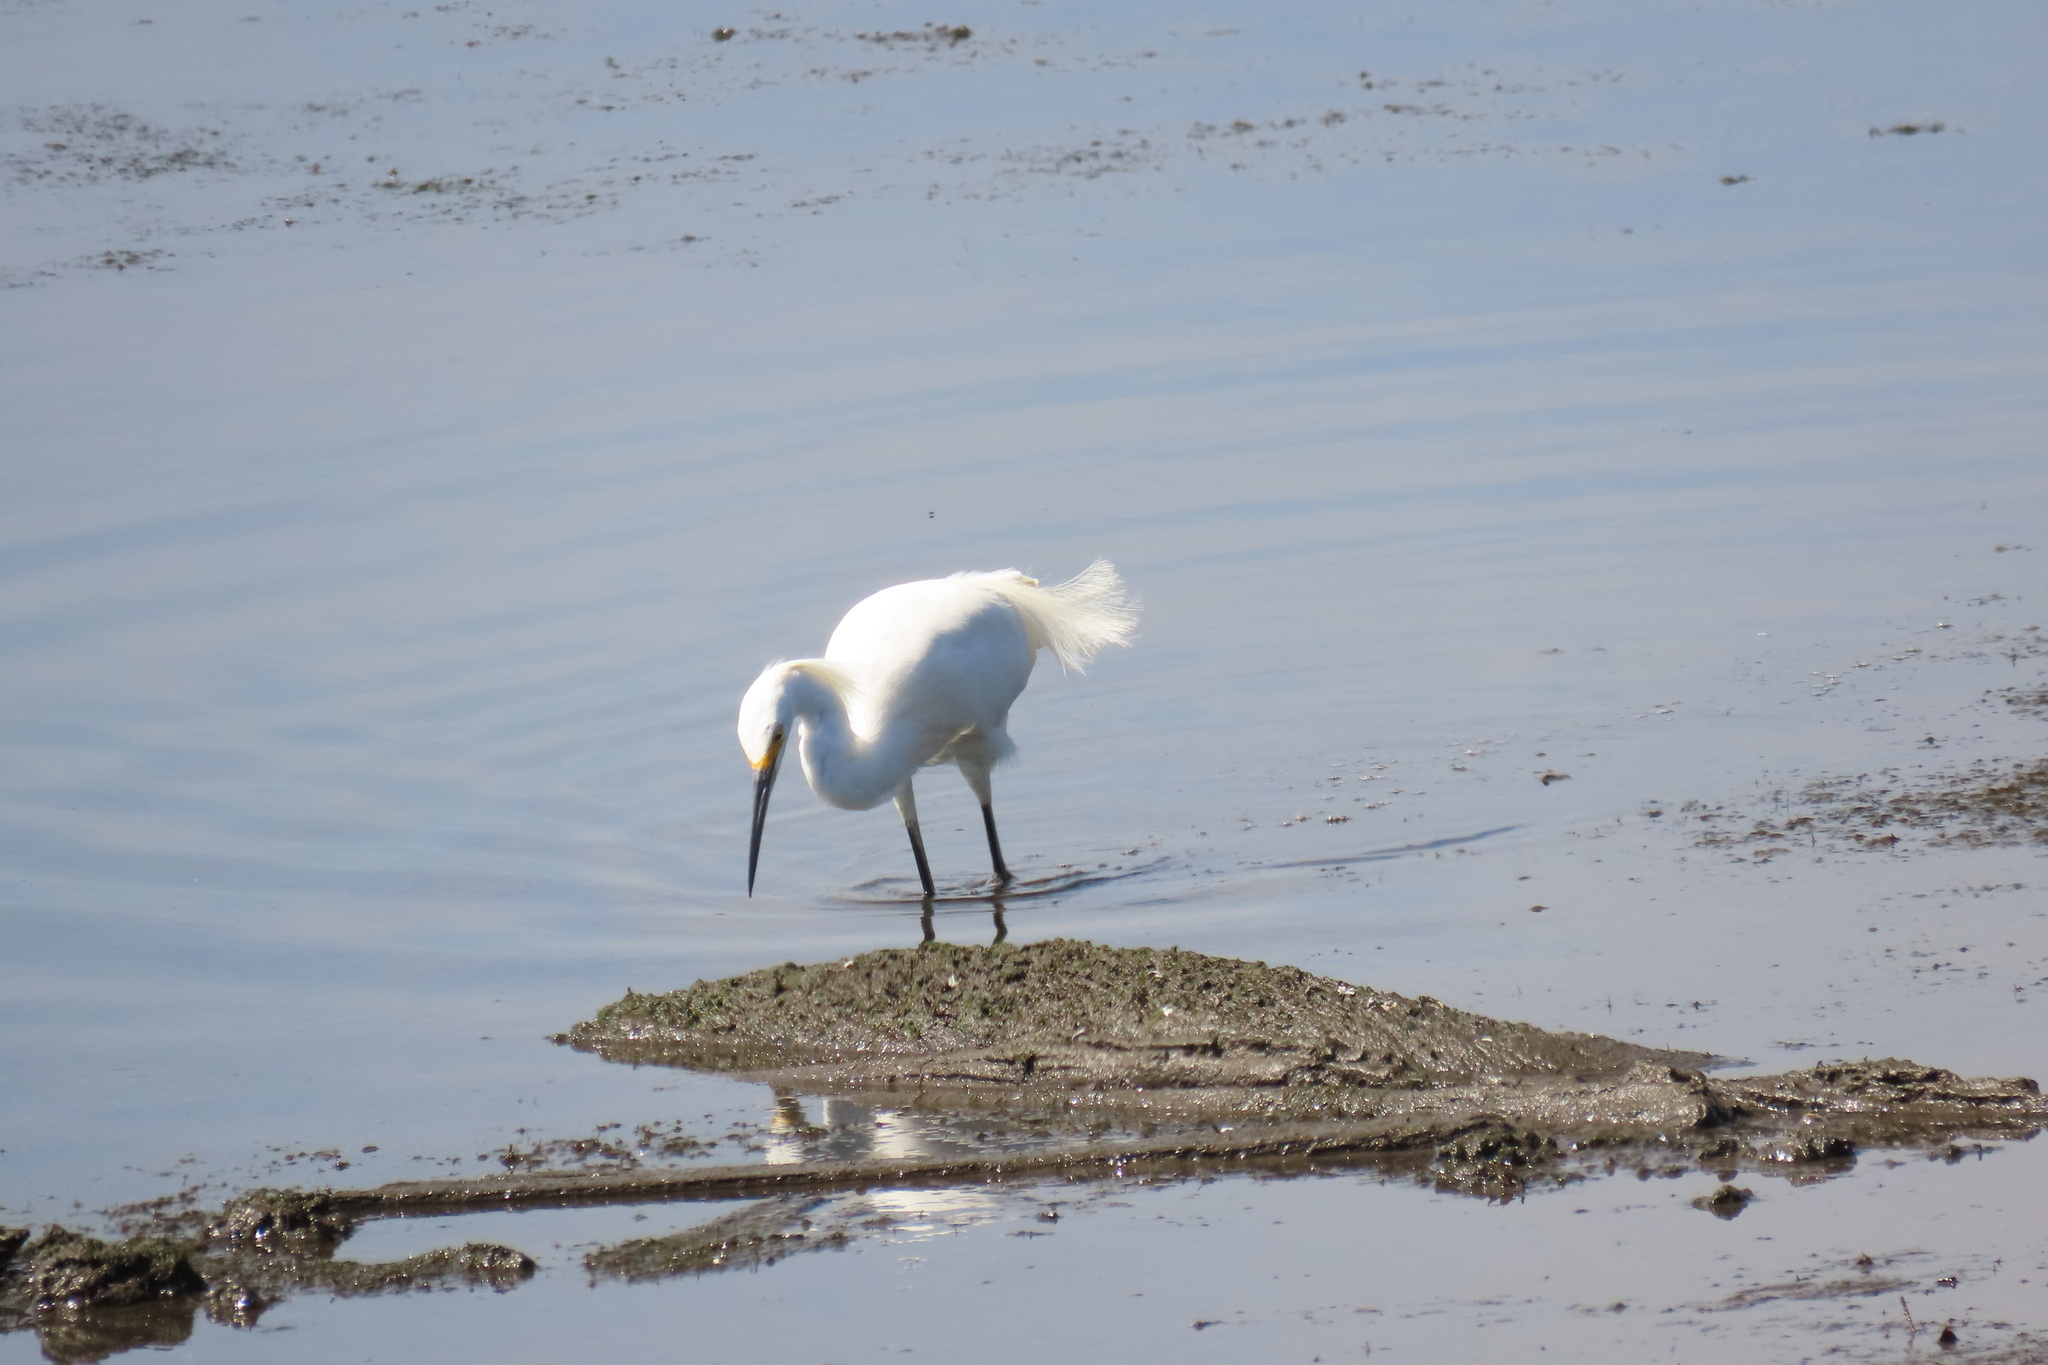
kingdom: Animalia
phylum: Chordata
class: Aves
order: Pelecaniformes
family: Ardeidae
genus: Egretta
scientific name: Egretta thula
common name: Snowy egret
